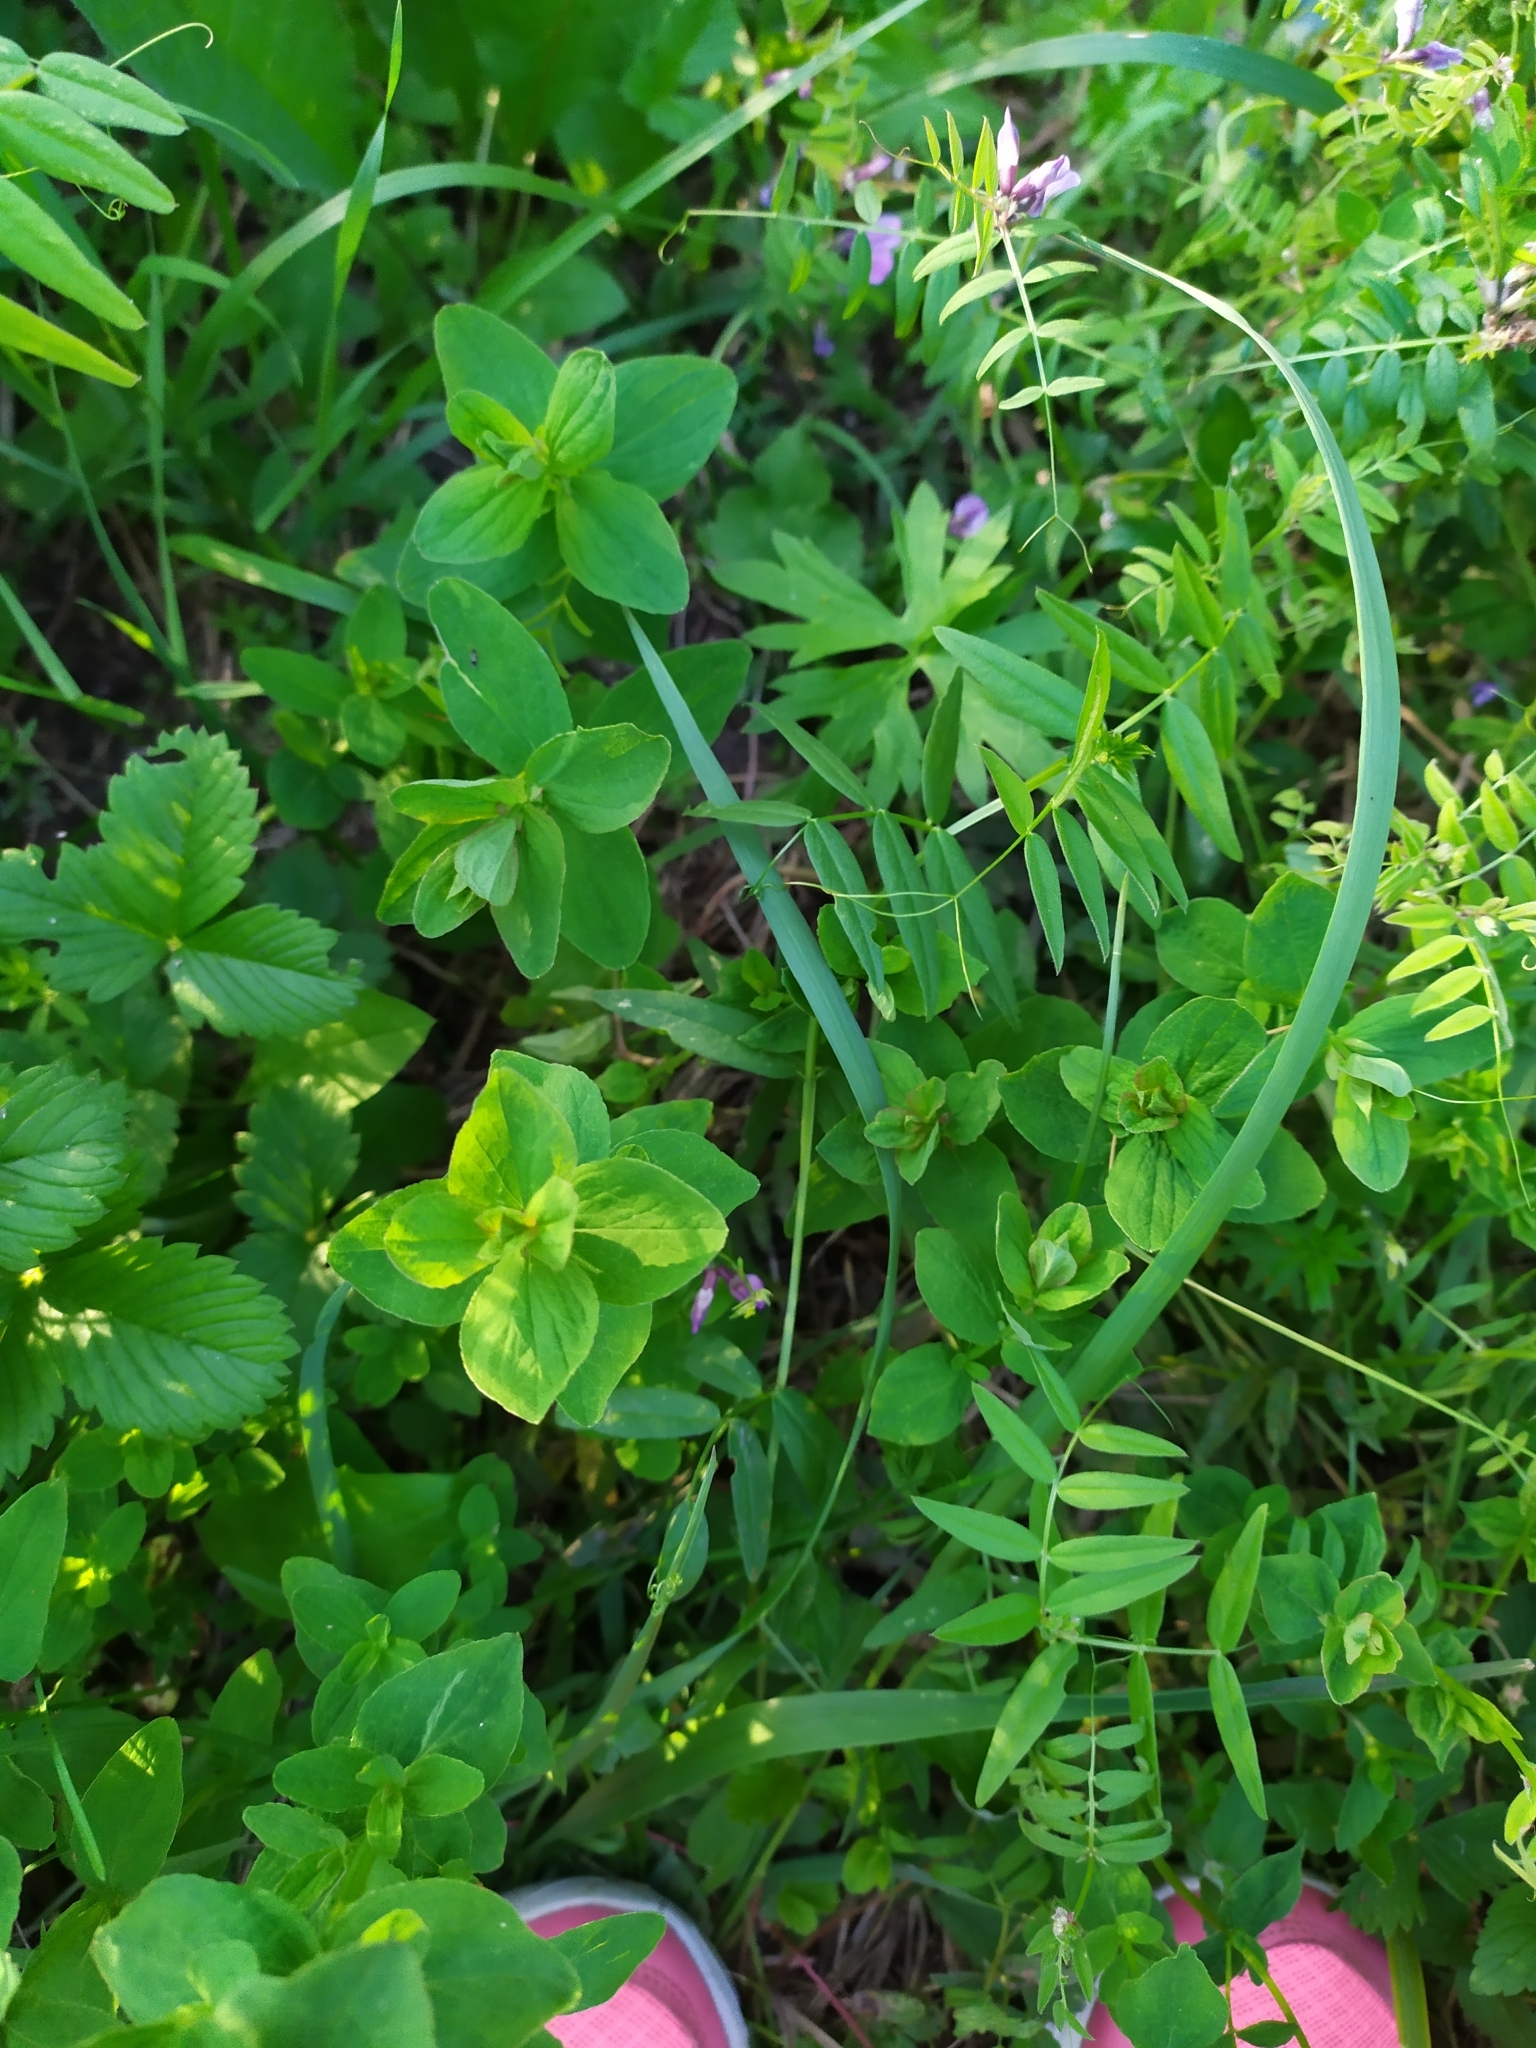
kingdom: Plantae
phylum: Tracheophyta
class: Magnoliopsida
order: Malpighiales
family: Hypericaceae
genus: Hypericum
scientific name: Hypericum maculatum
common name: Imperforate st. john's-wort
